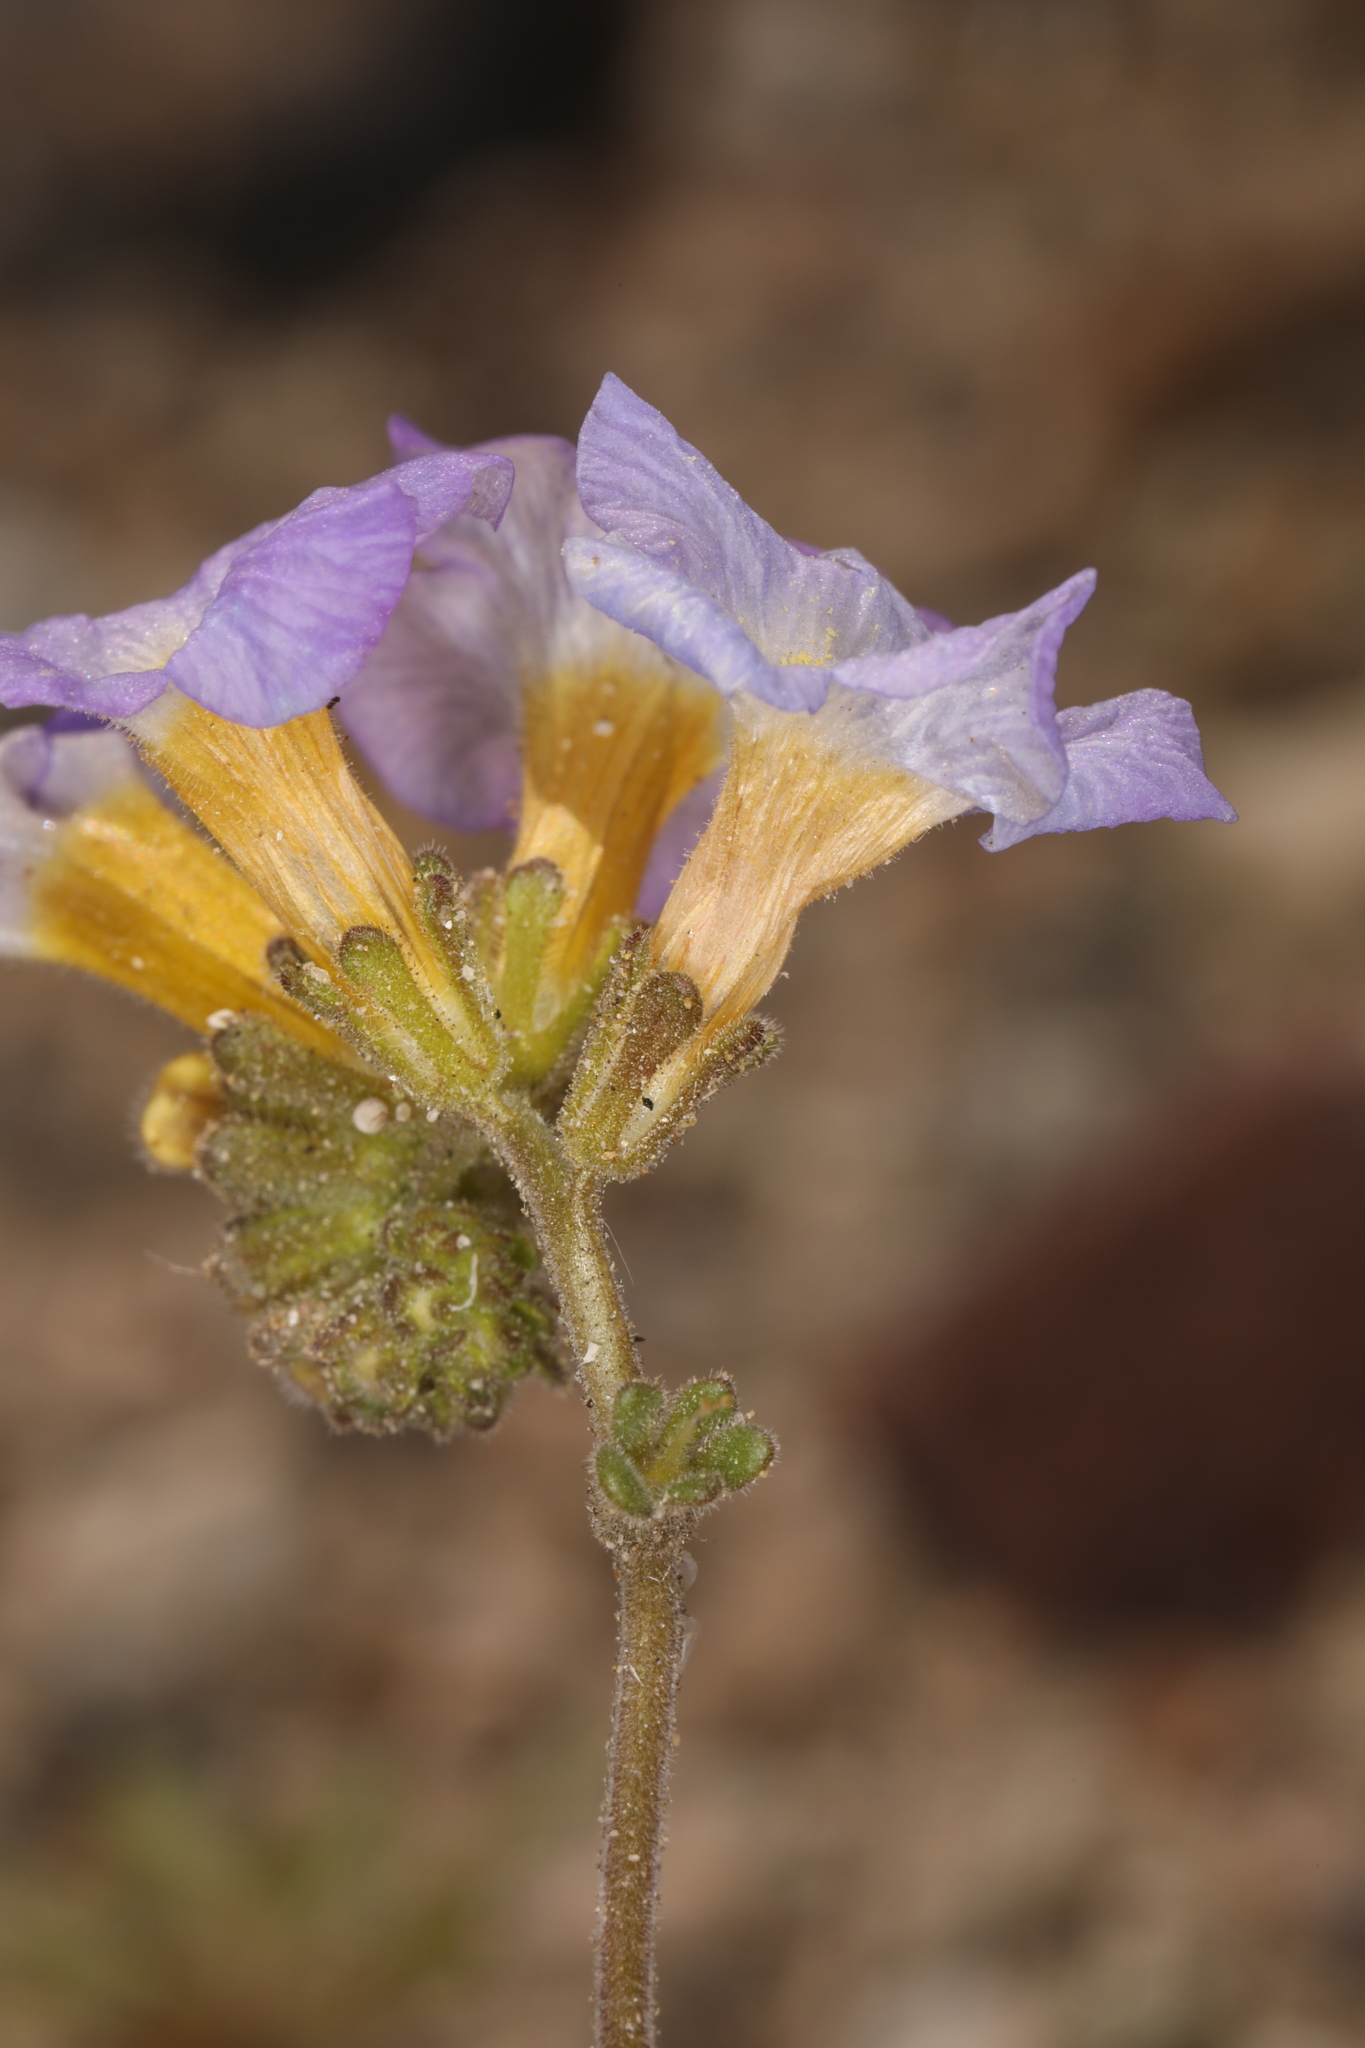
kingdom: Plantae
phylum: Tracheophyta
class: Magnoliopsida
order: Boraginales
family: Hydrophyllaceae
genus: Phacelia
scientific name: Phacelia fremontii
